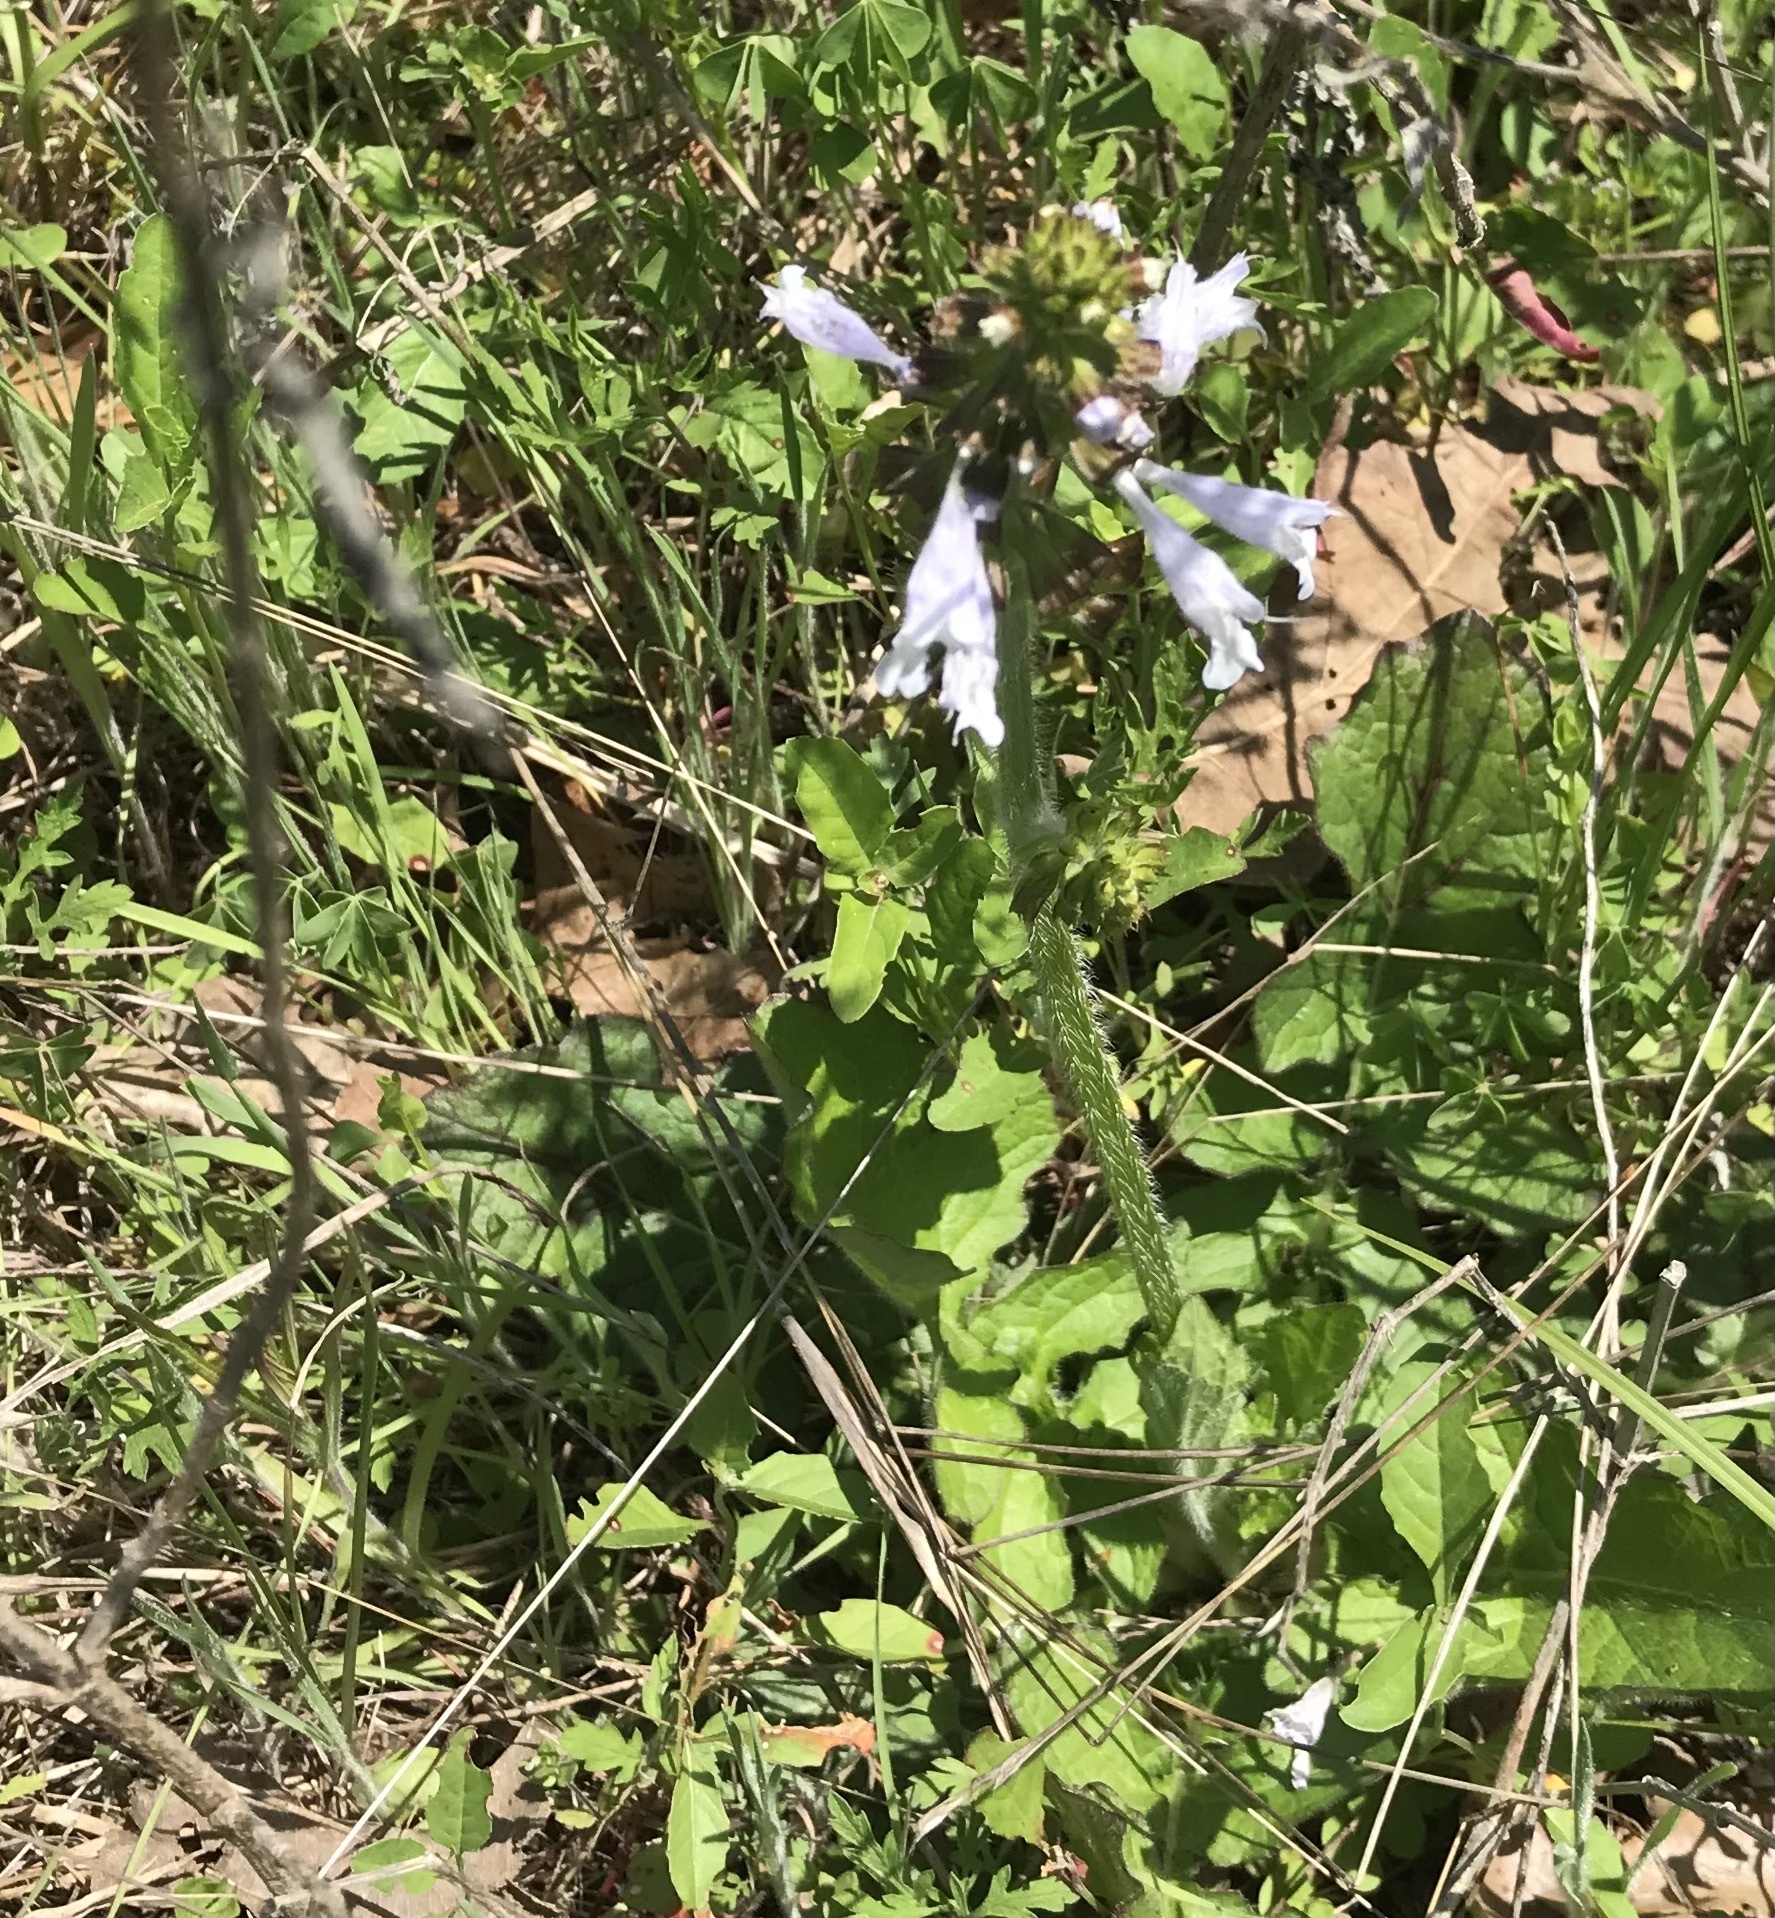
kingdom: Plantae
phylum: Tracheophyta
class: Magnoliopsida
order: Lamiales
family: Lamiaceae
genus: Salvia
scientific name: Salvia lyrata
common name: Cancerweed
